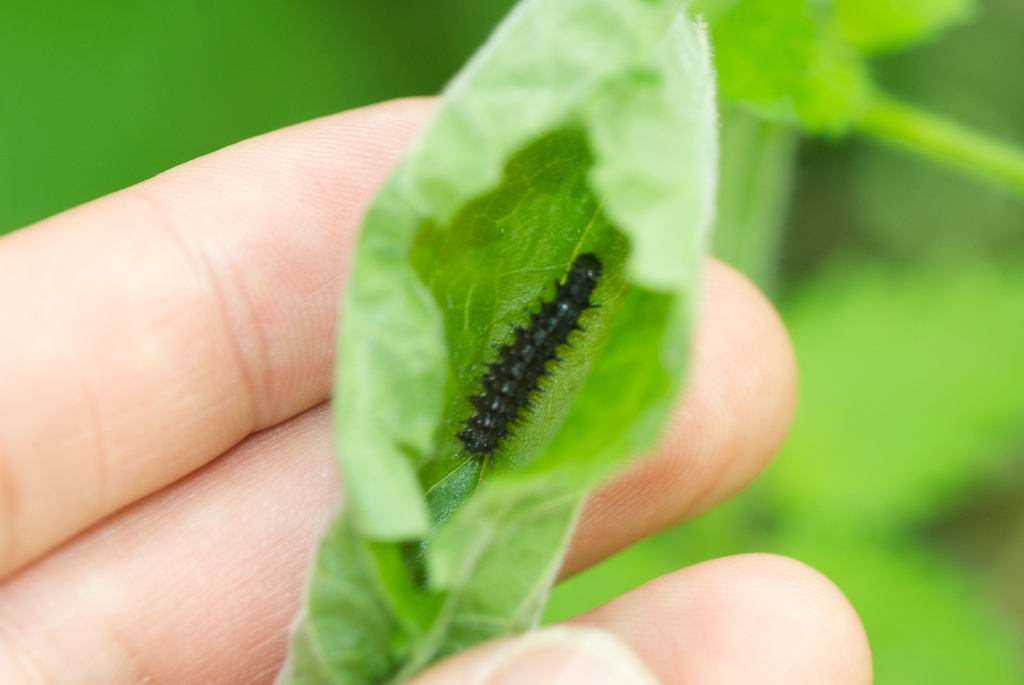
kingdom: Animalia
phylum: Arthropoda
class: Insecta
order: Lepidoptera
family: Nymphalidae
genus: Vanessa
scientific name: Vanessa atalanta
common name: Red admiral
